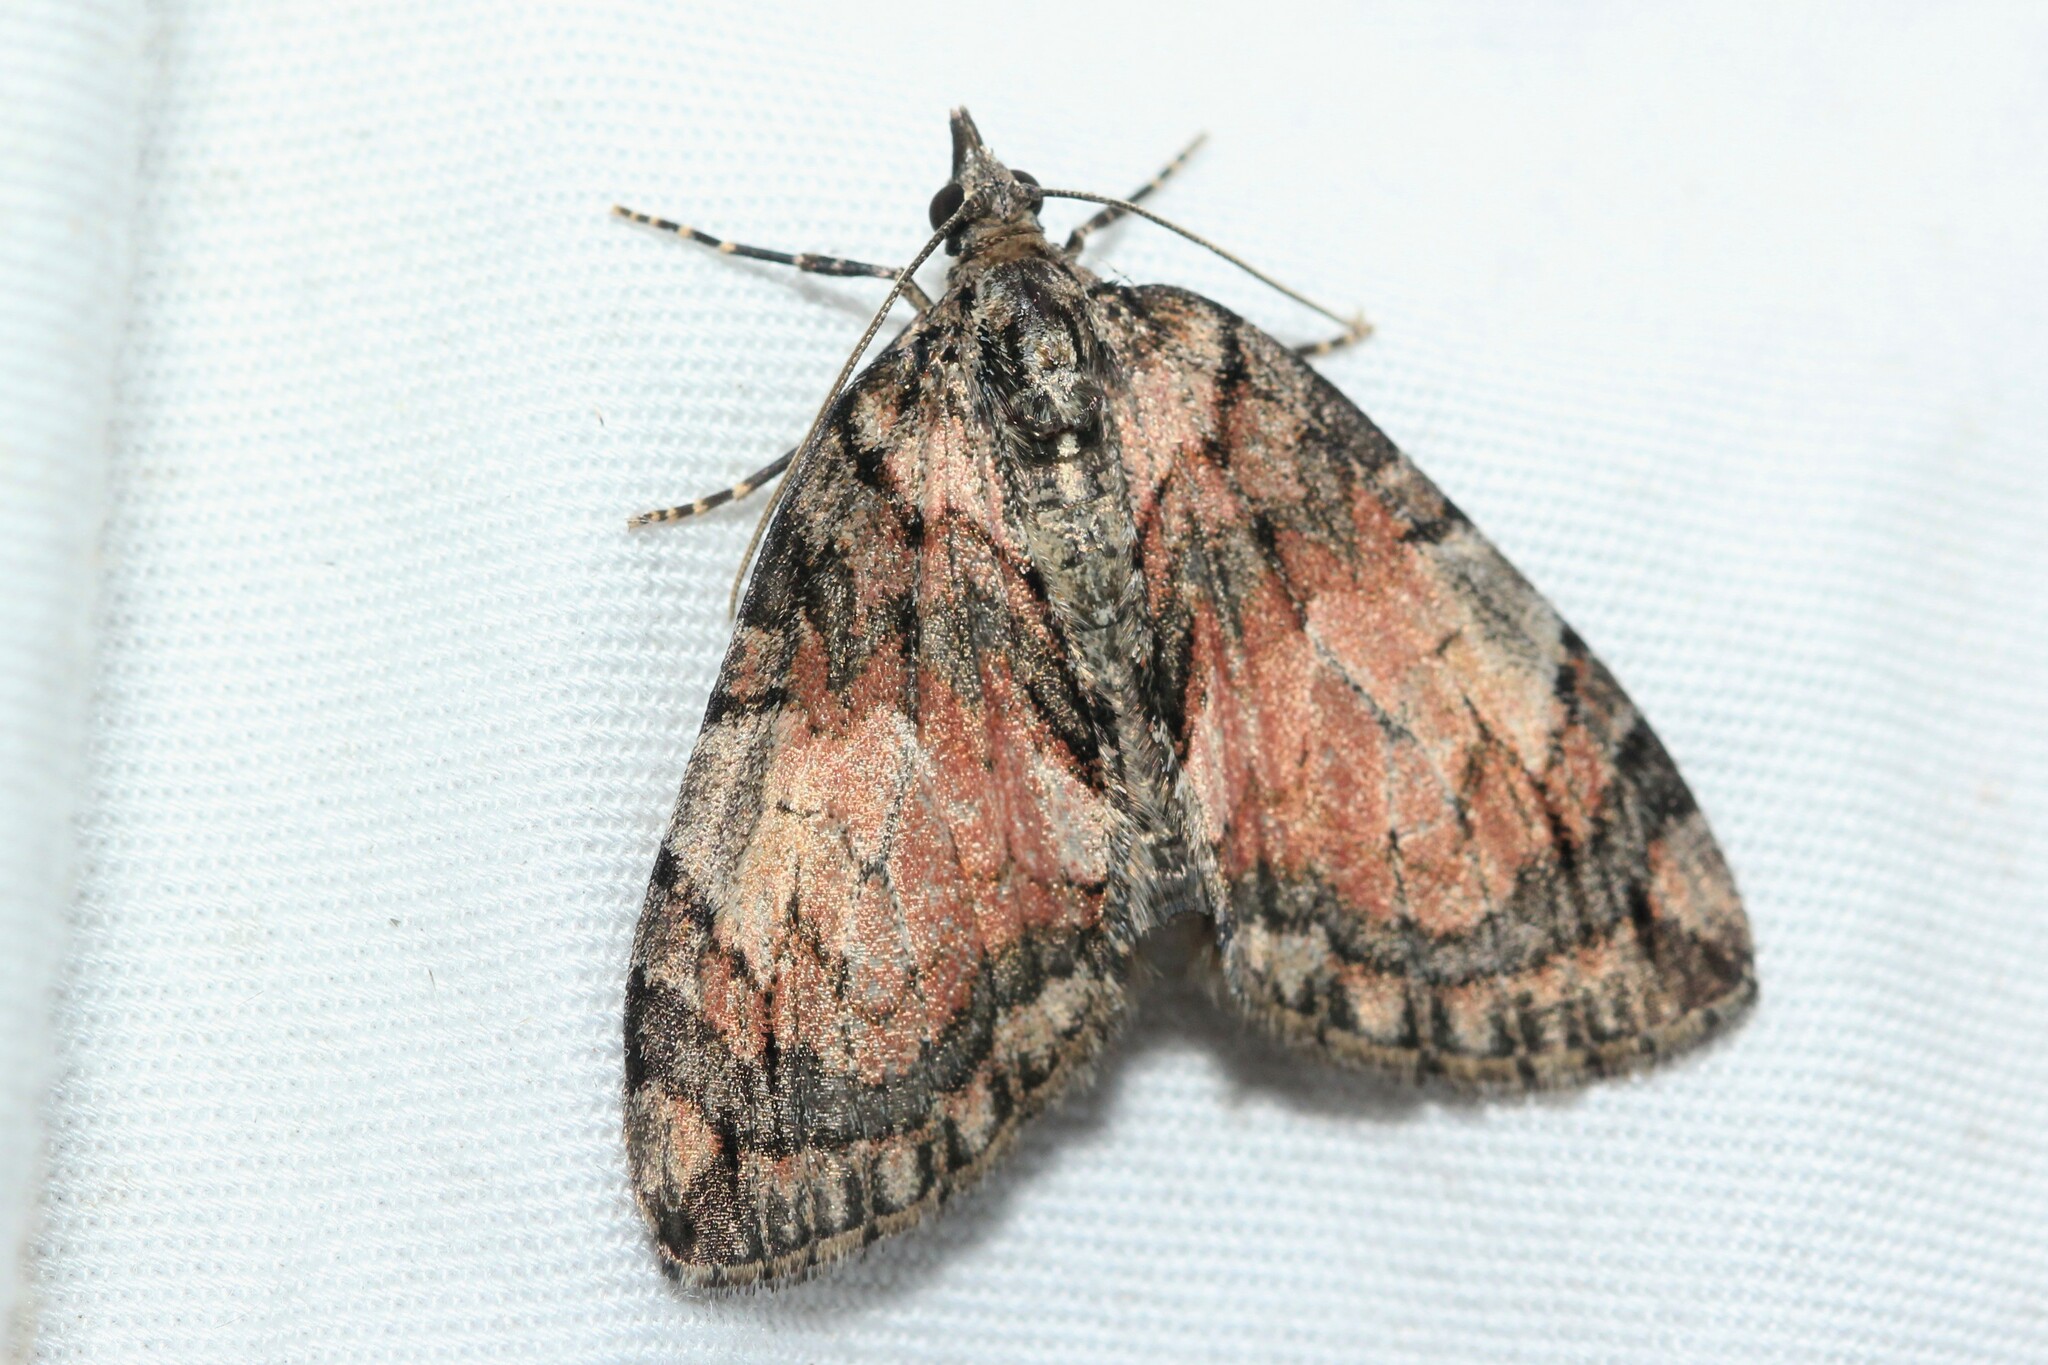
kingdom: Animalia
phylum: Arthropoda
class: Insecta
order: Lepidoptera
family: Geometridae
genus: Hydriomena
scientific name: Hydriomena perfracta
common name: Shattered hydriomena moth
